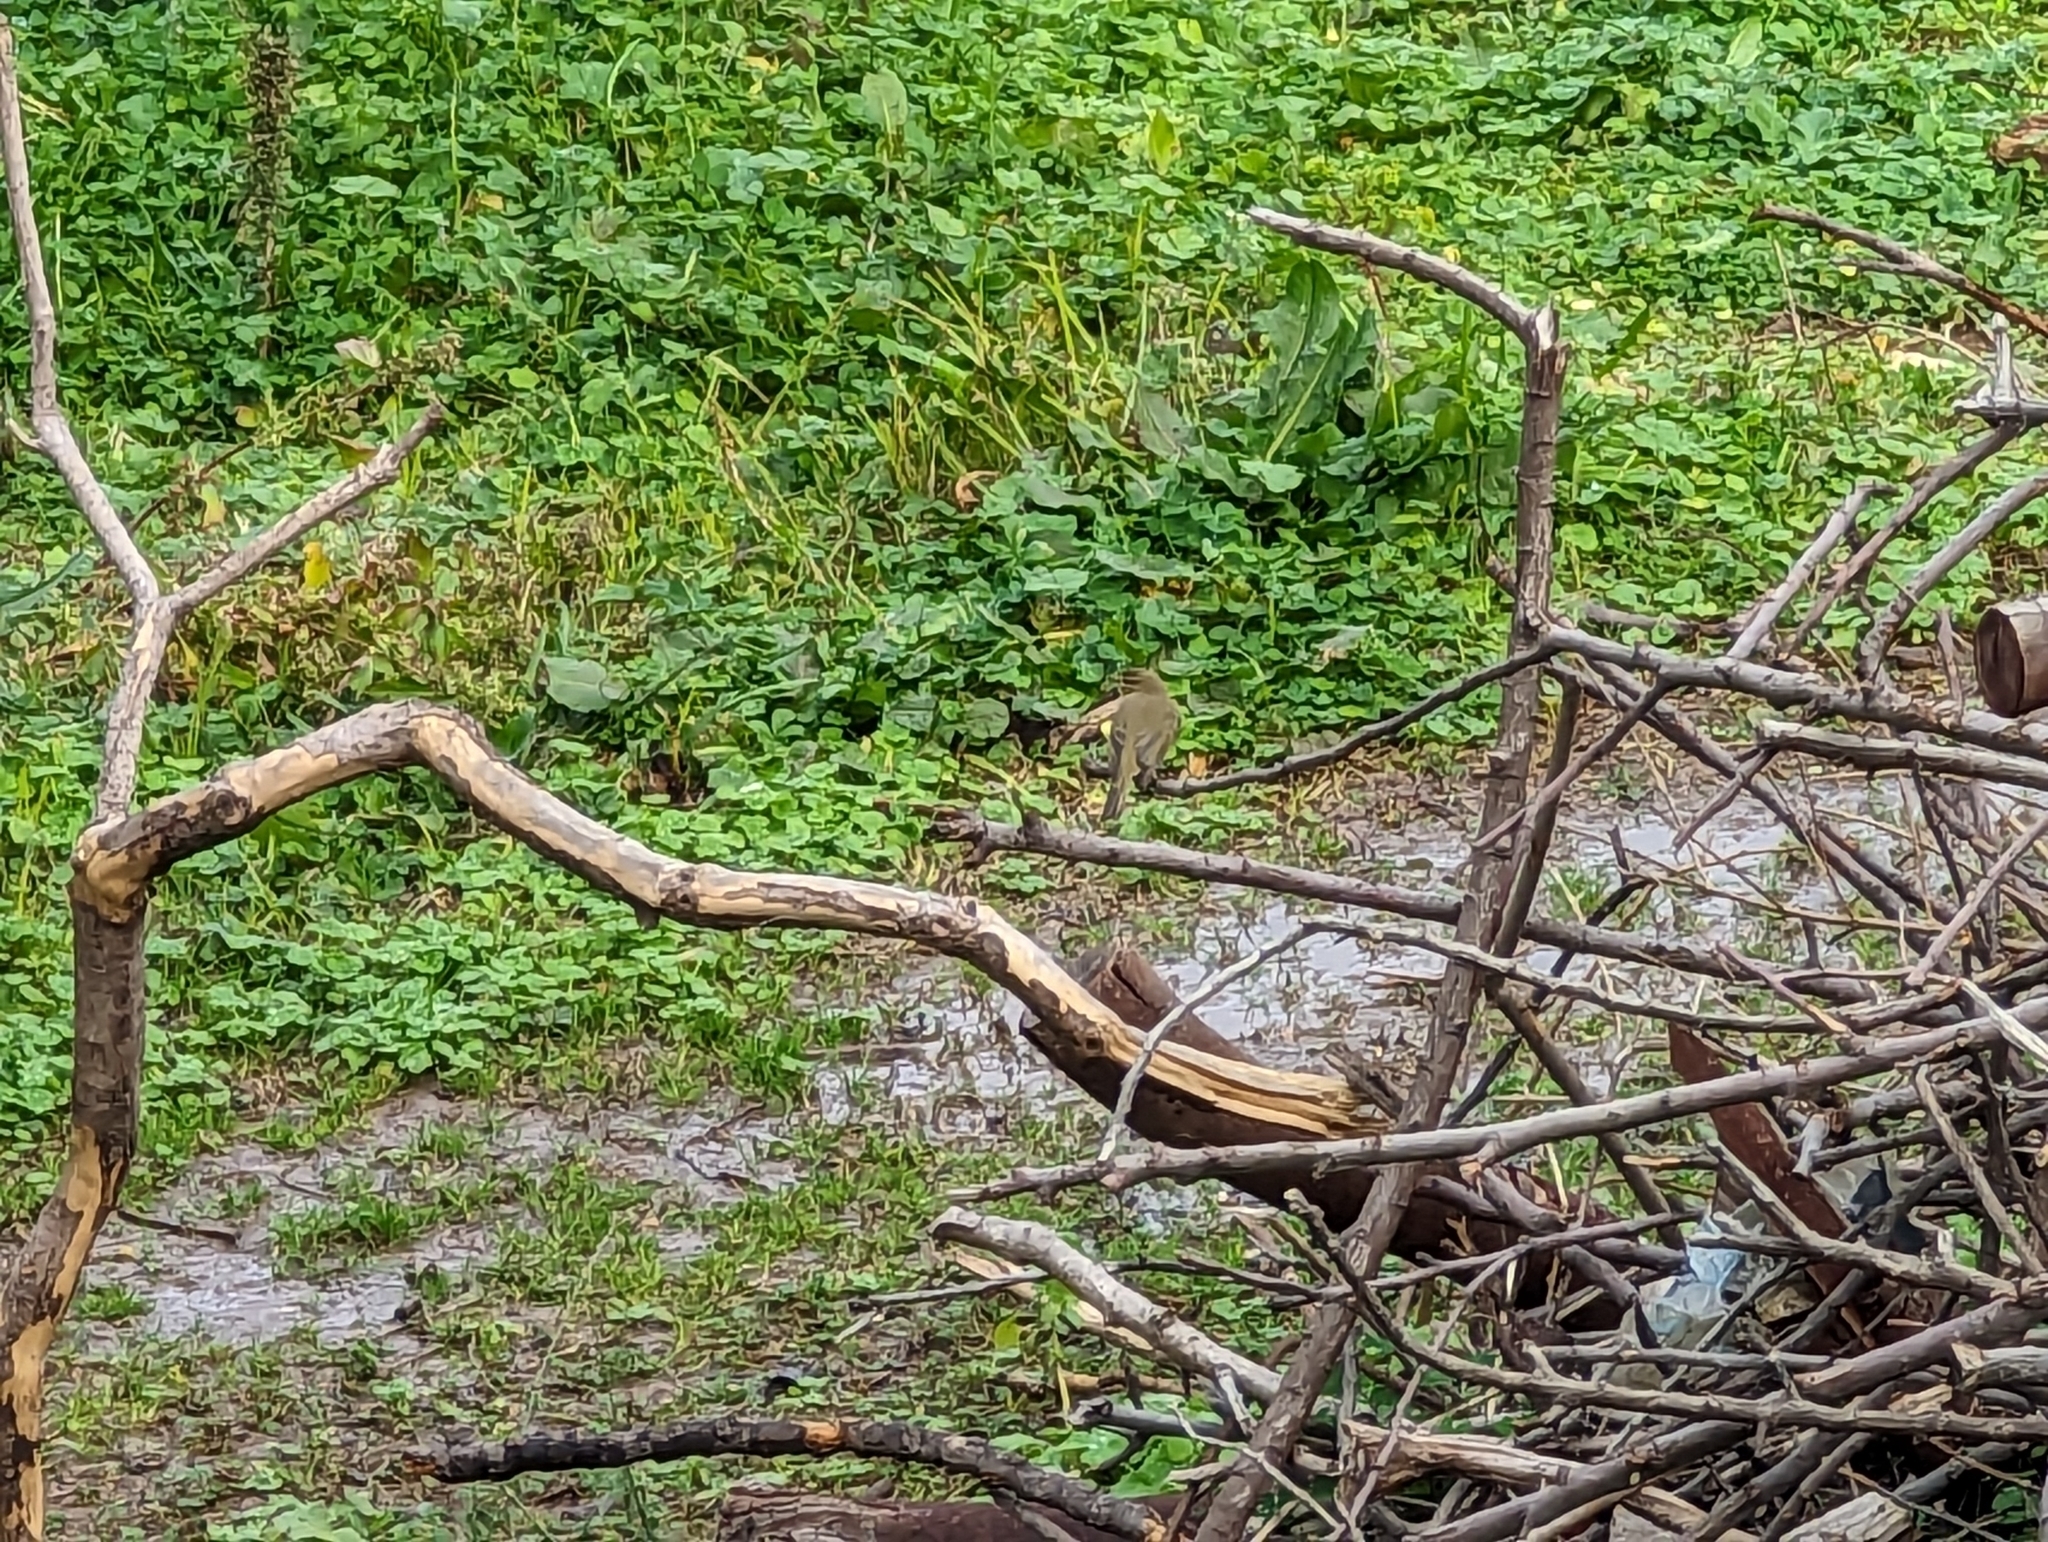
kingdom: Animalia
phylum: Chordata
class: Aves
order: Passeriformes
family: Phylloscopidae
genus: Phylloscopus
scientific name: Phylloscopus collybita
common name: Common chiffchaff
